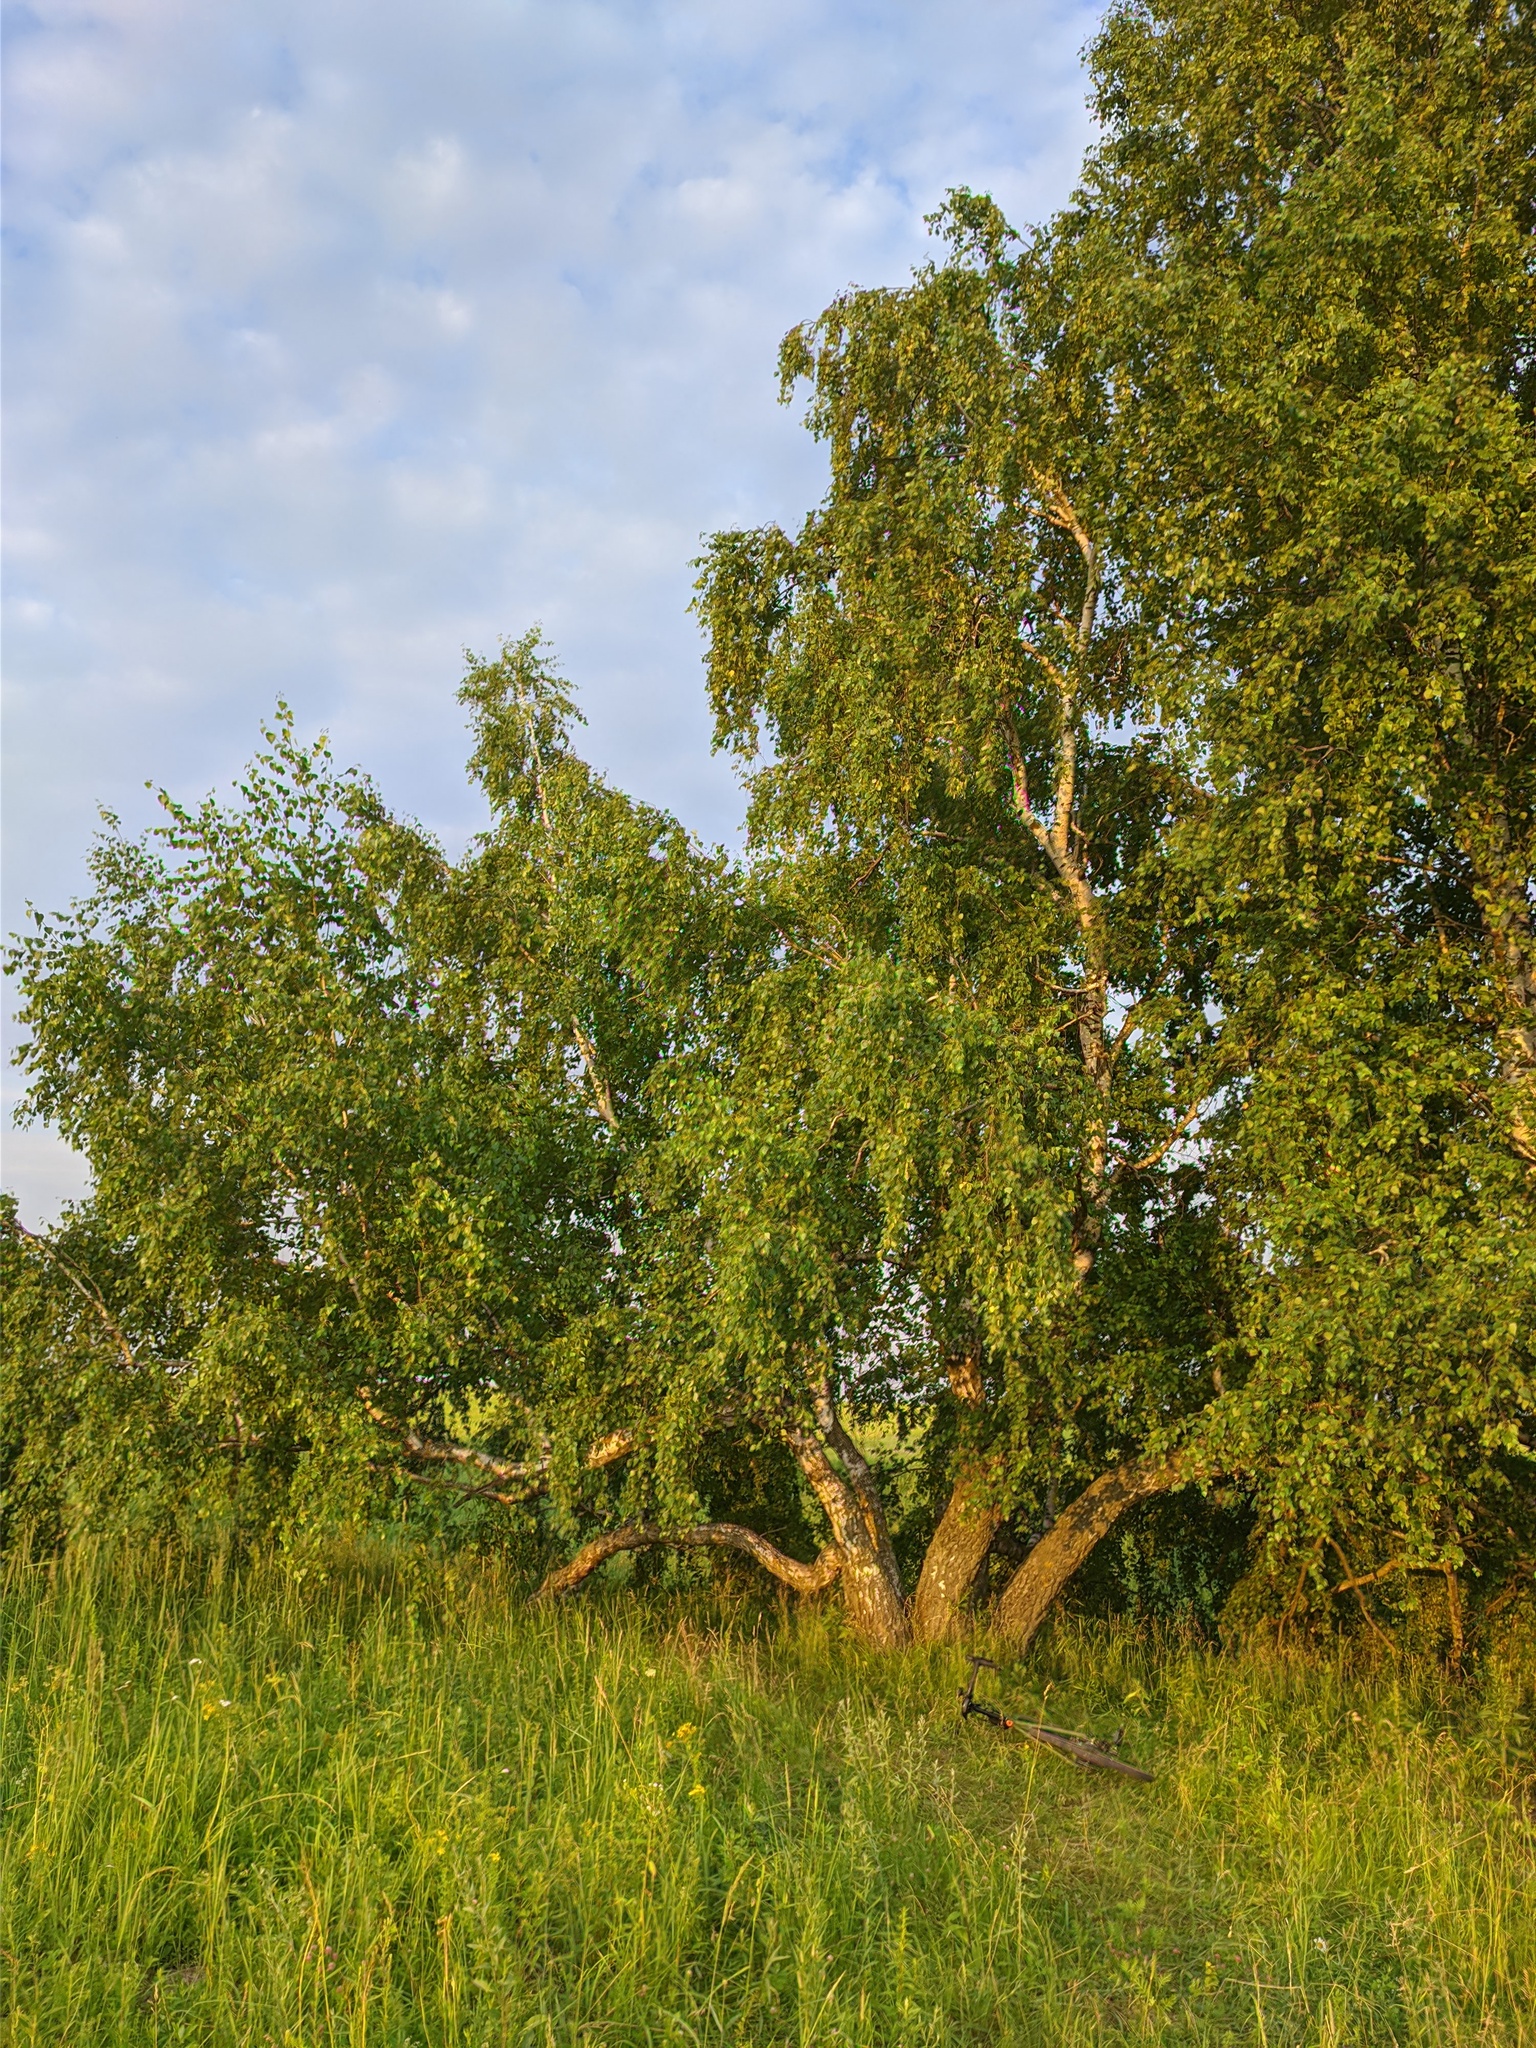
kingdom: Plantae
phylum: Tracheophyta
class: Magnoliopsida
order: Fagales
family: Betulaceae
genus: Betula
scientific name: Betula pendula
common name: Silver birch
